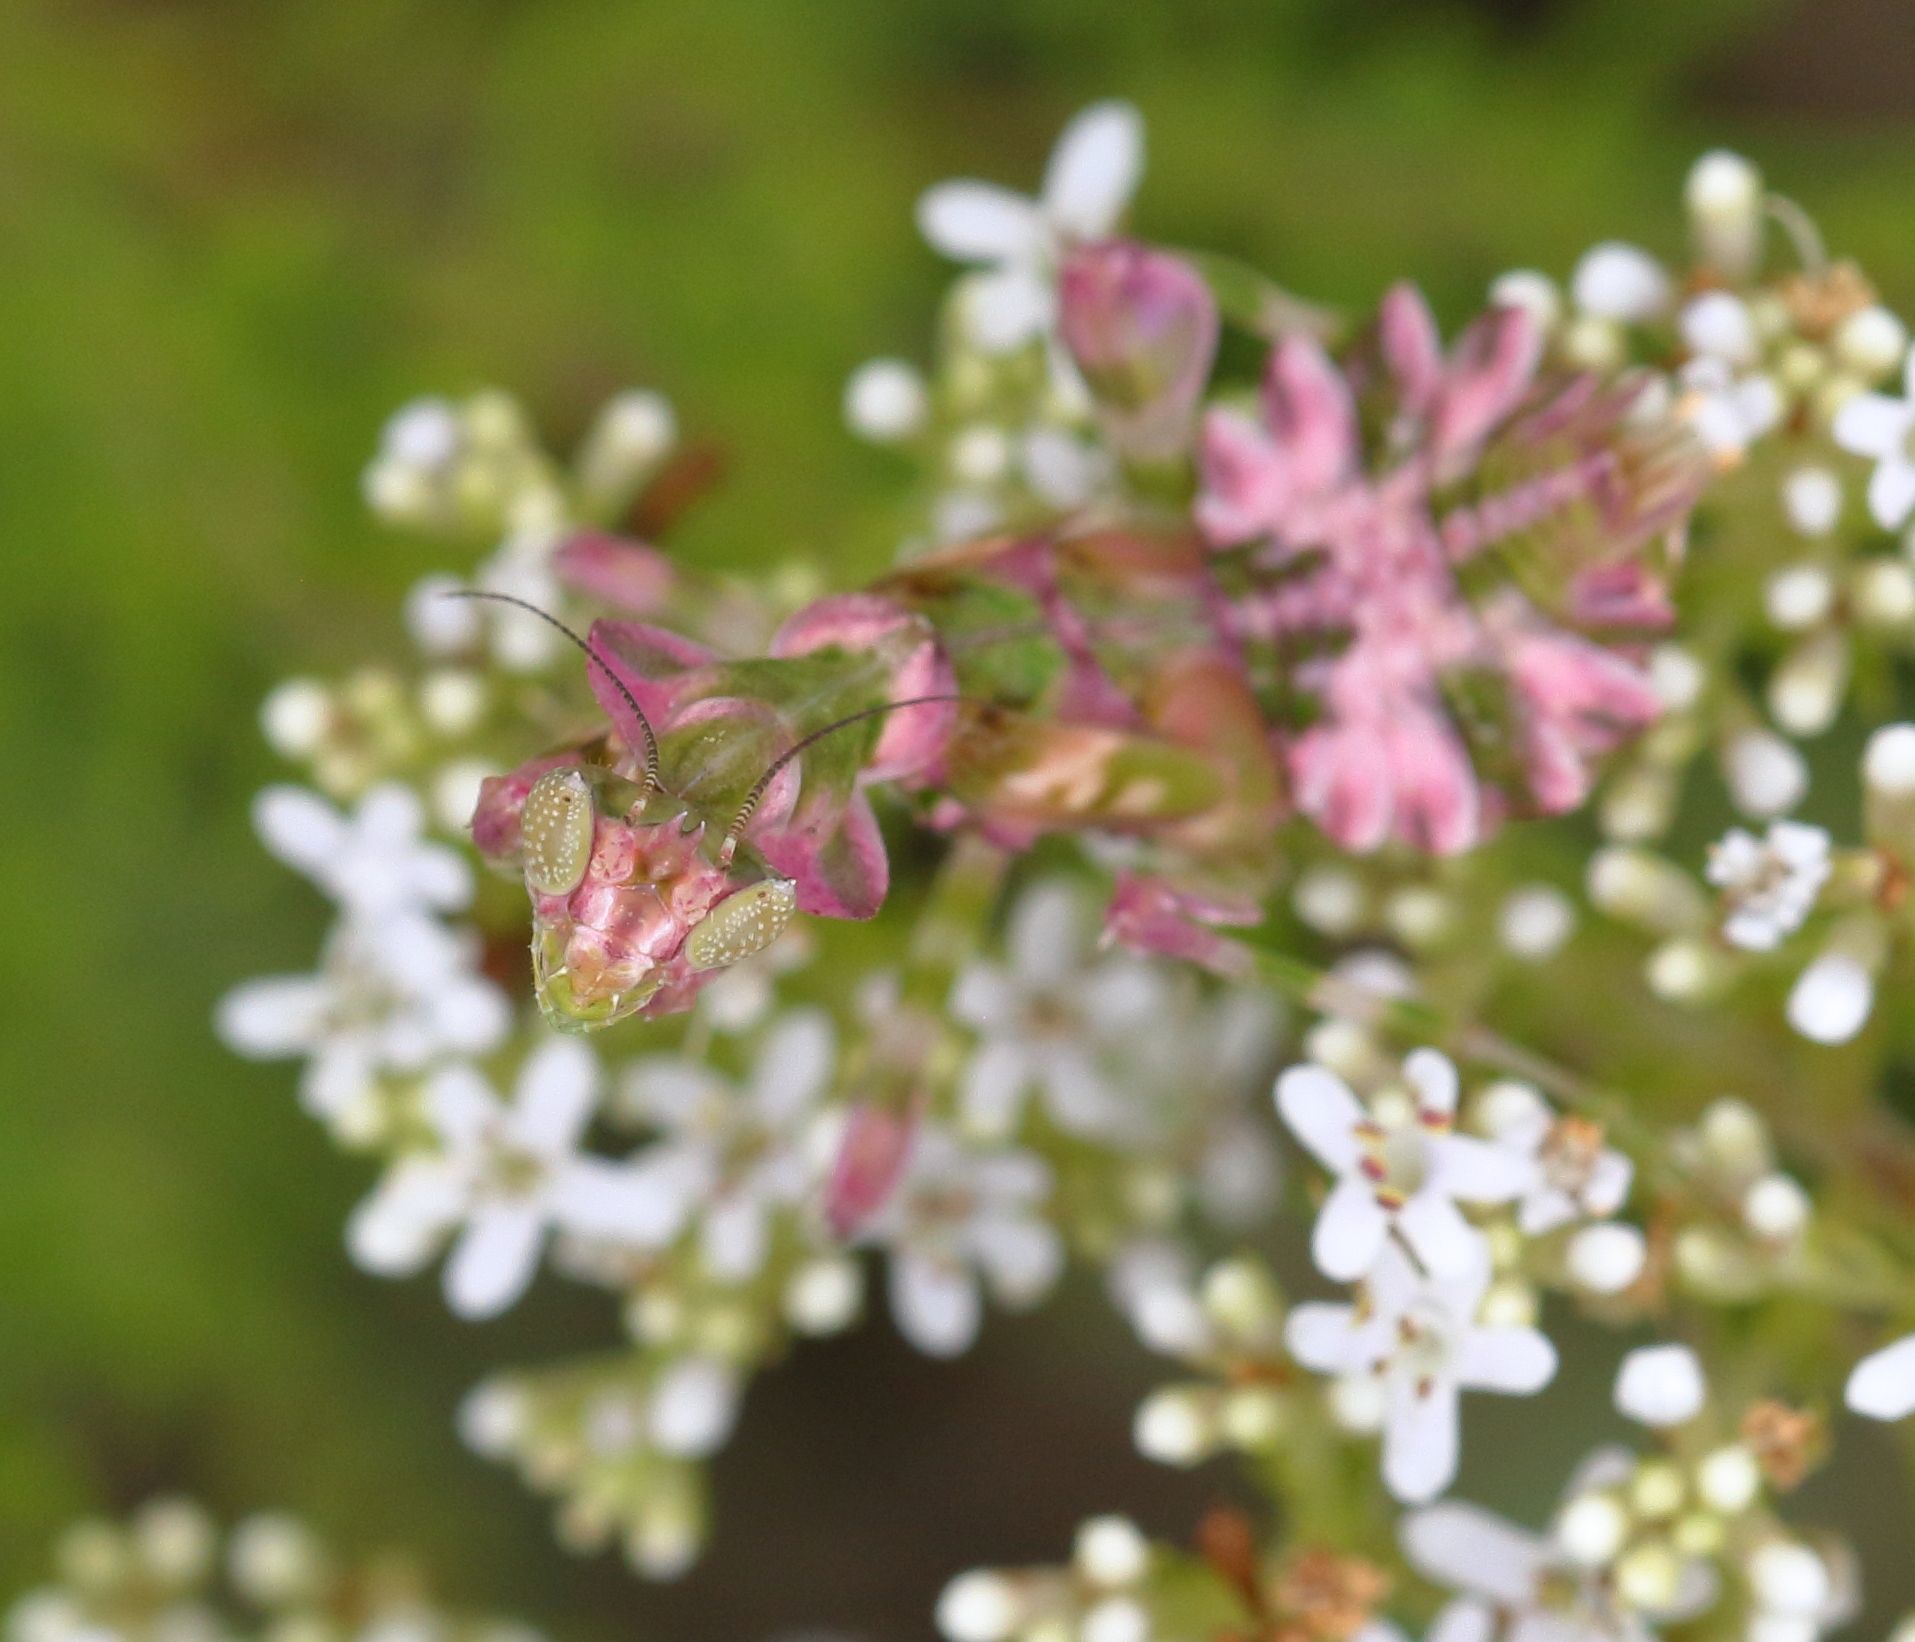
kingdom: Animalia
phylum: Arthropoda
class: Insecta
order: Mantodea
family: Galinthiadidae
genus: Harpagomantis
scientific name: Harpagomantis tricolor
